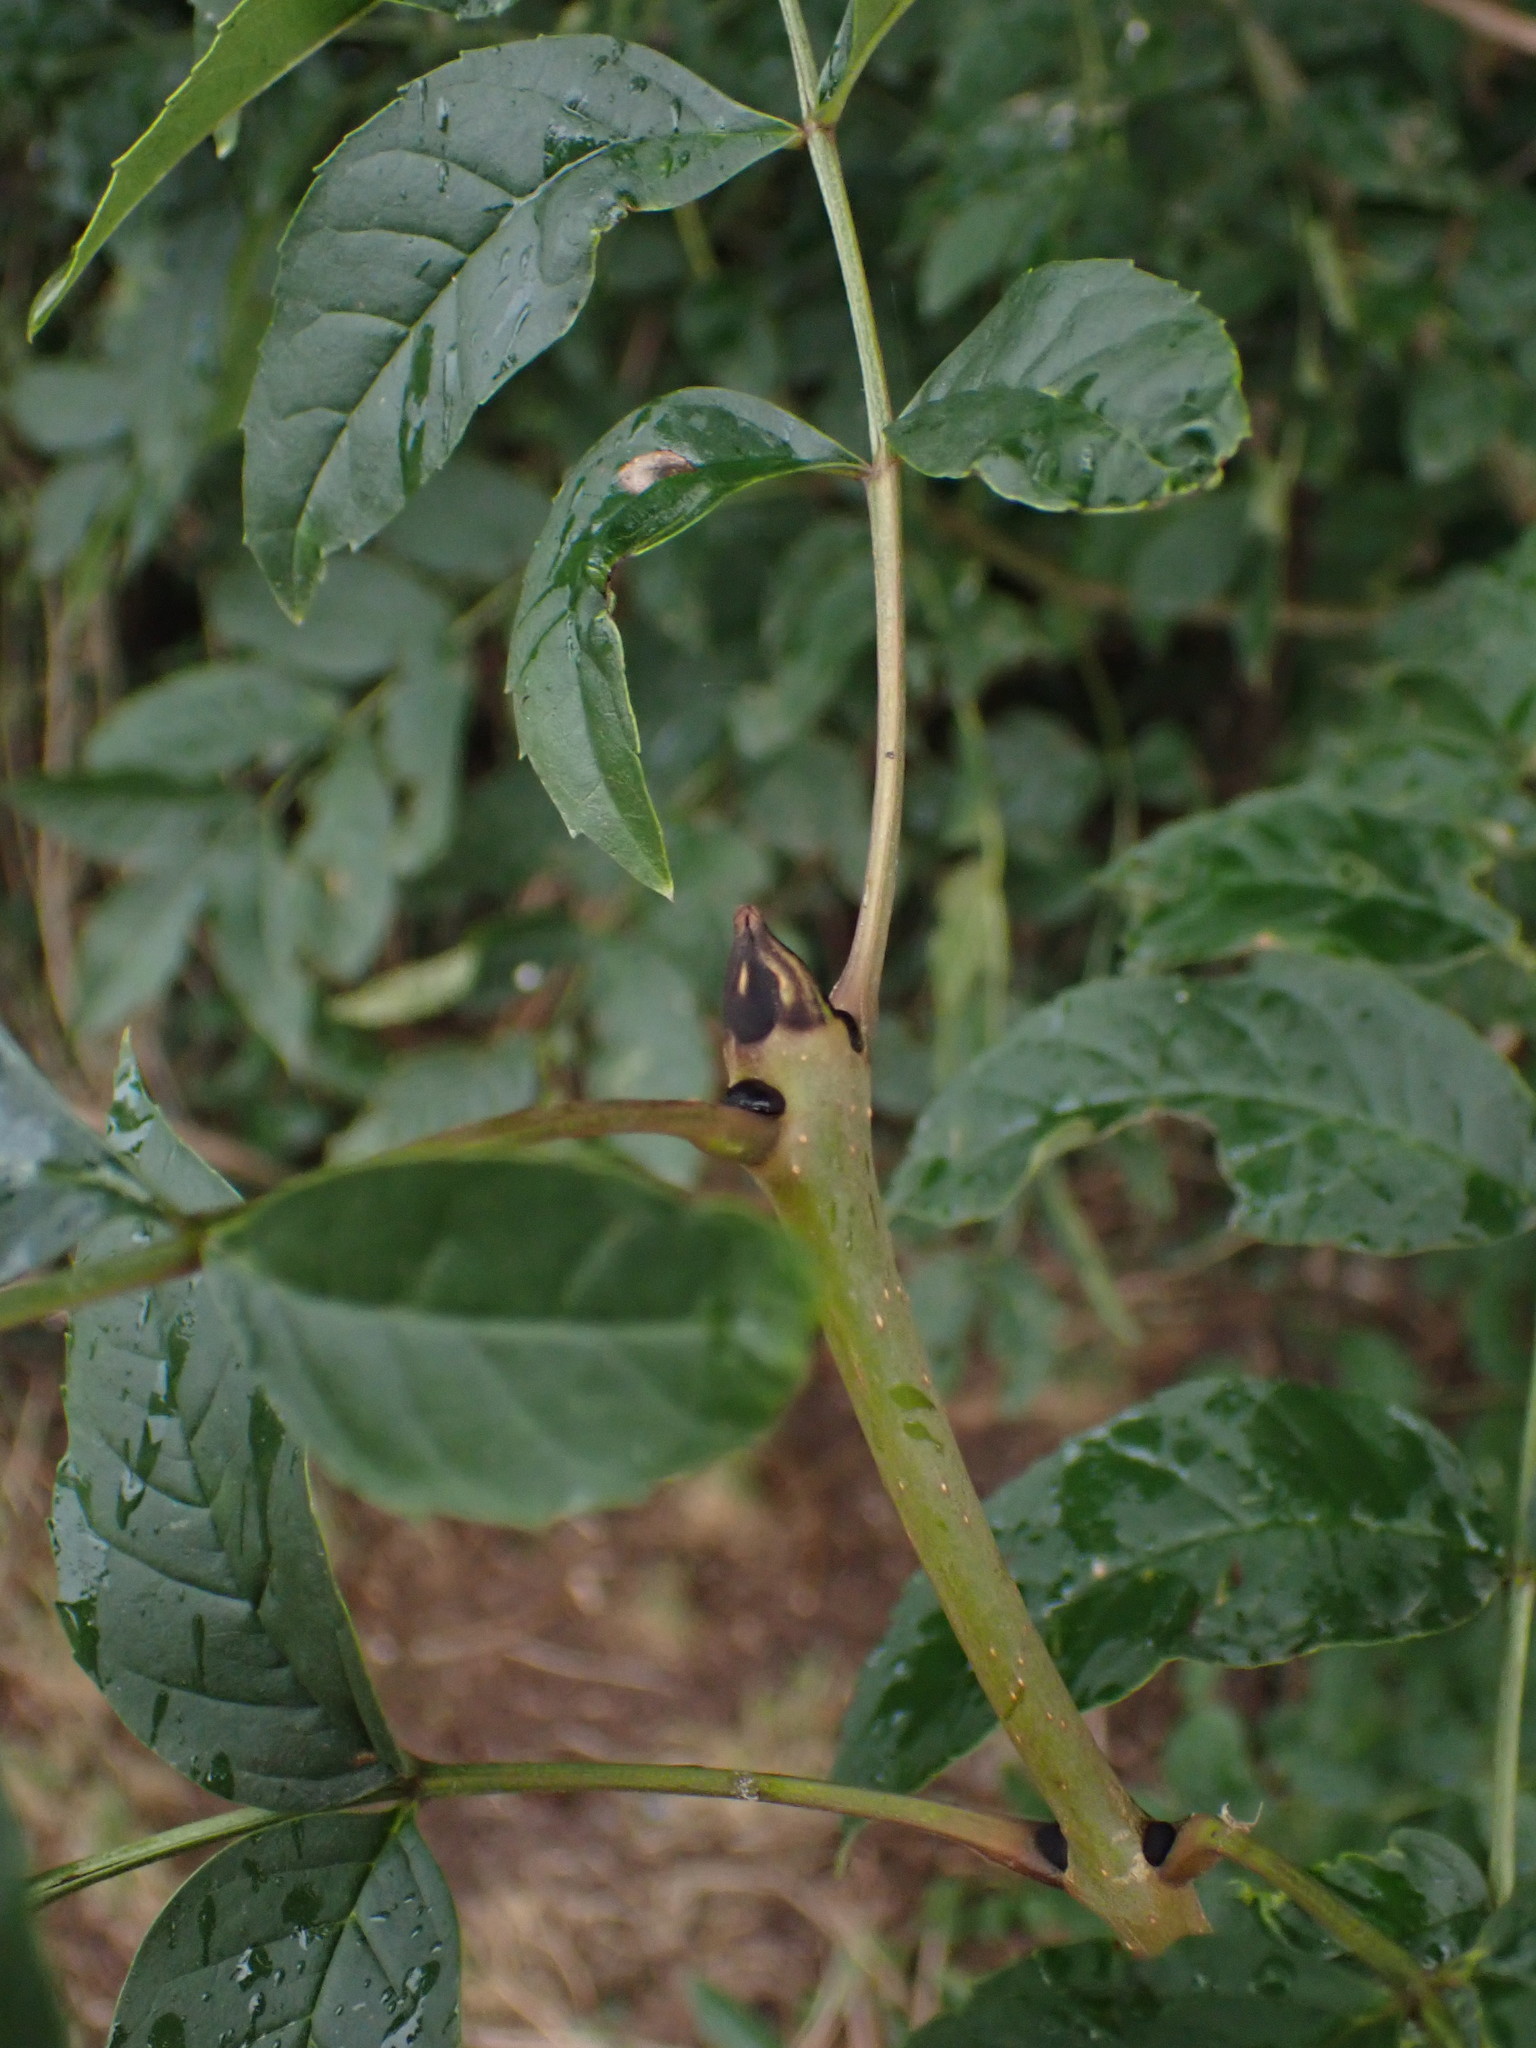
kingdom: Plantae
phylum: Tracheophyta
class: Magnoliopsida
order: Lamiales
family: Oleaceae
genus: Fraxinus
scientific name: Fraxinus excelsior
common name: European ash
